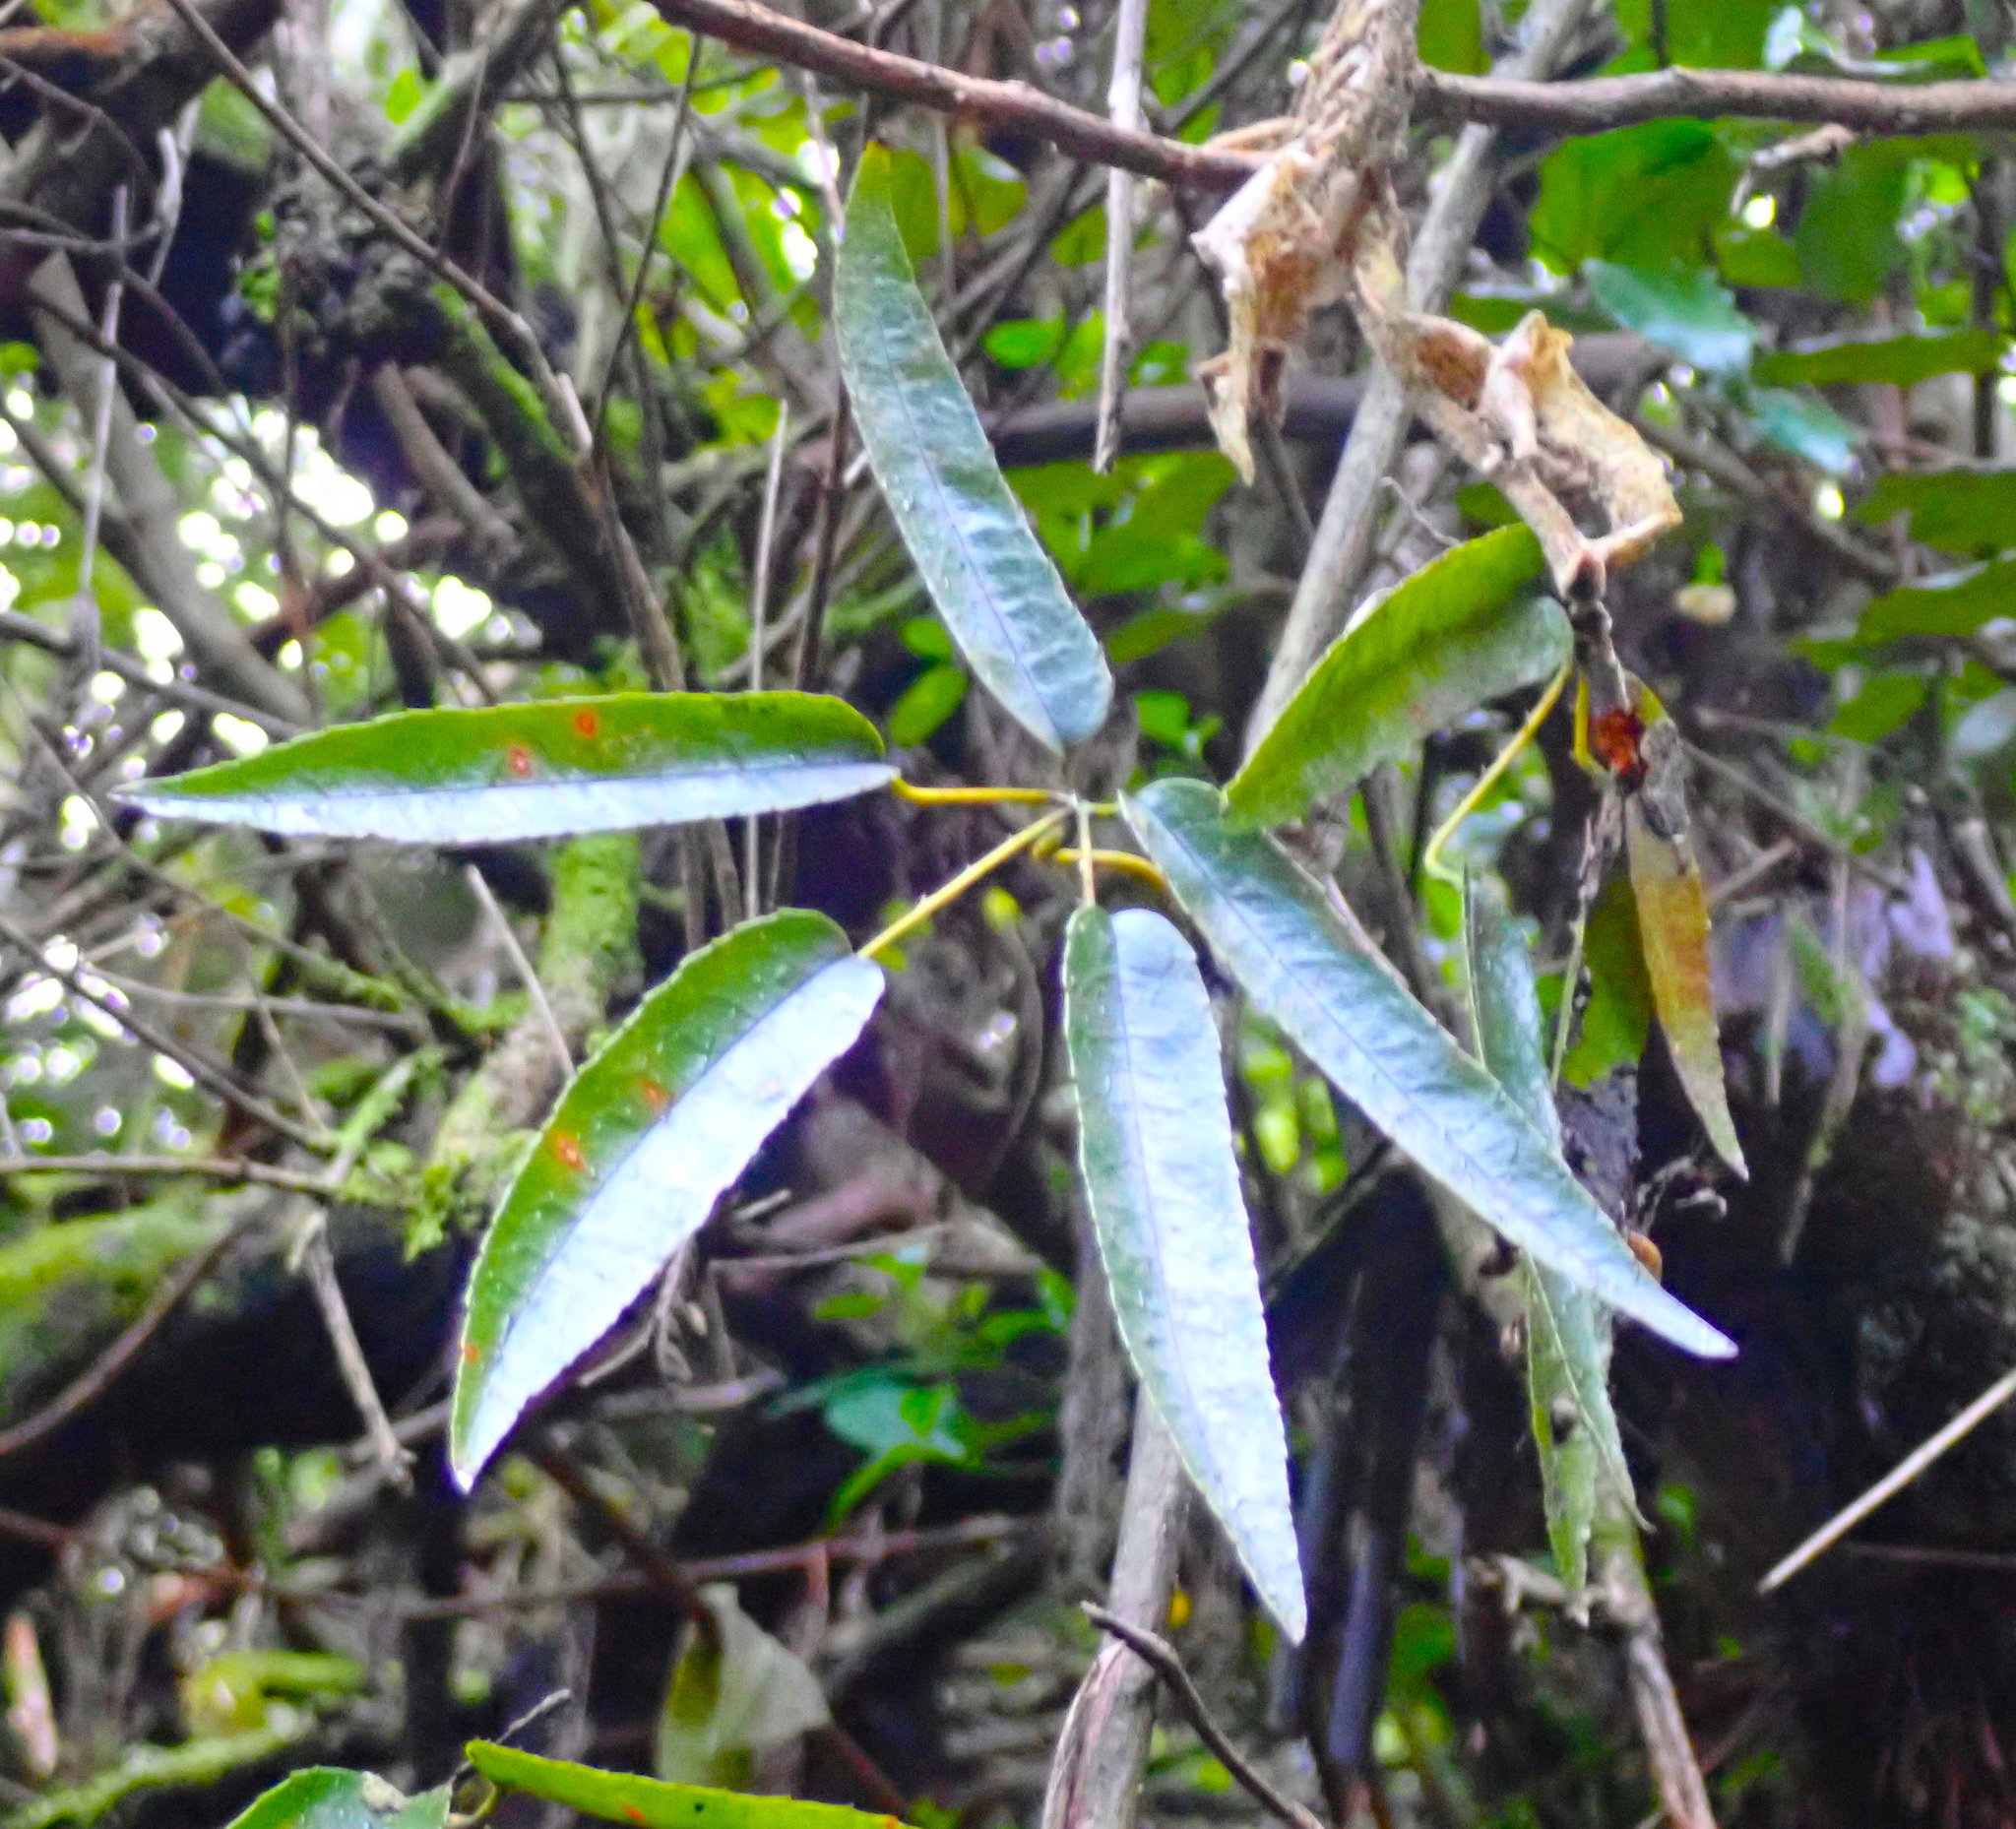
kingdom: Plantae
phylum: Tracheophyta
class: Magnoliopsida
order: Rosales
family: Rosaceae
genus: Rubus
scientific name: Rubus cissoides
